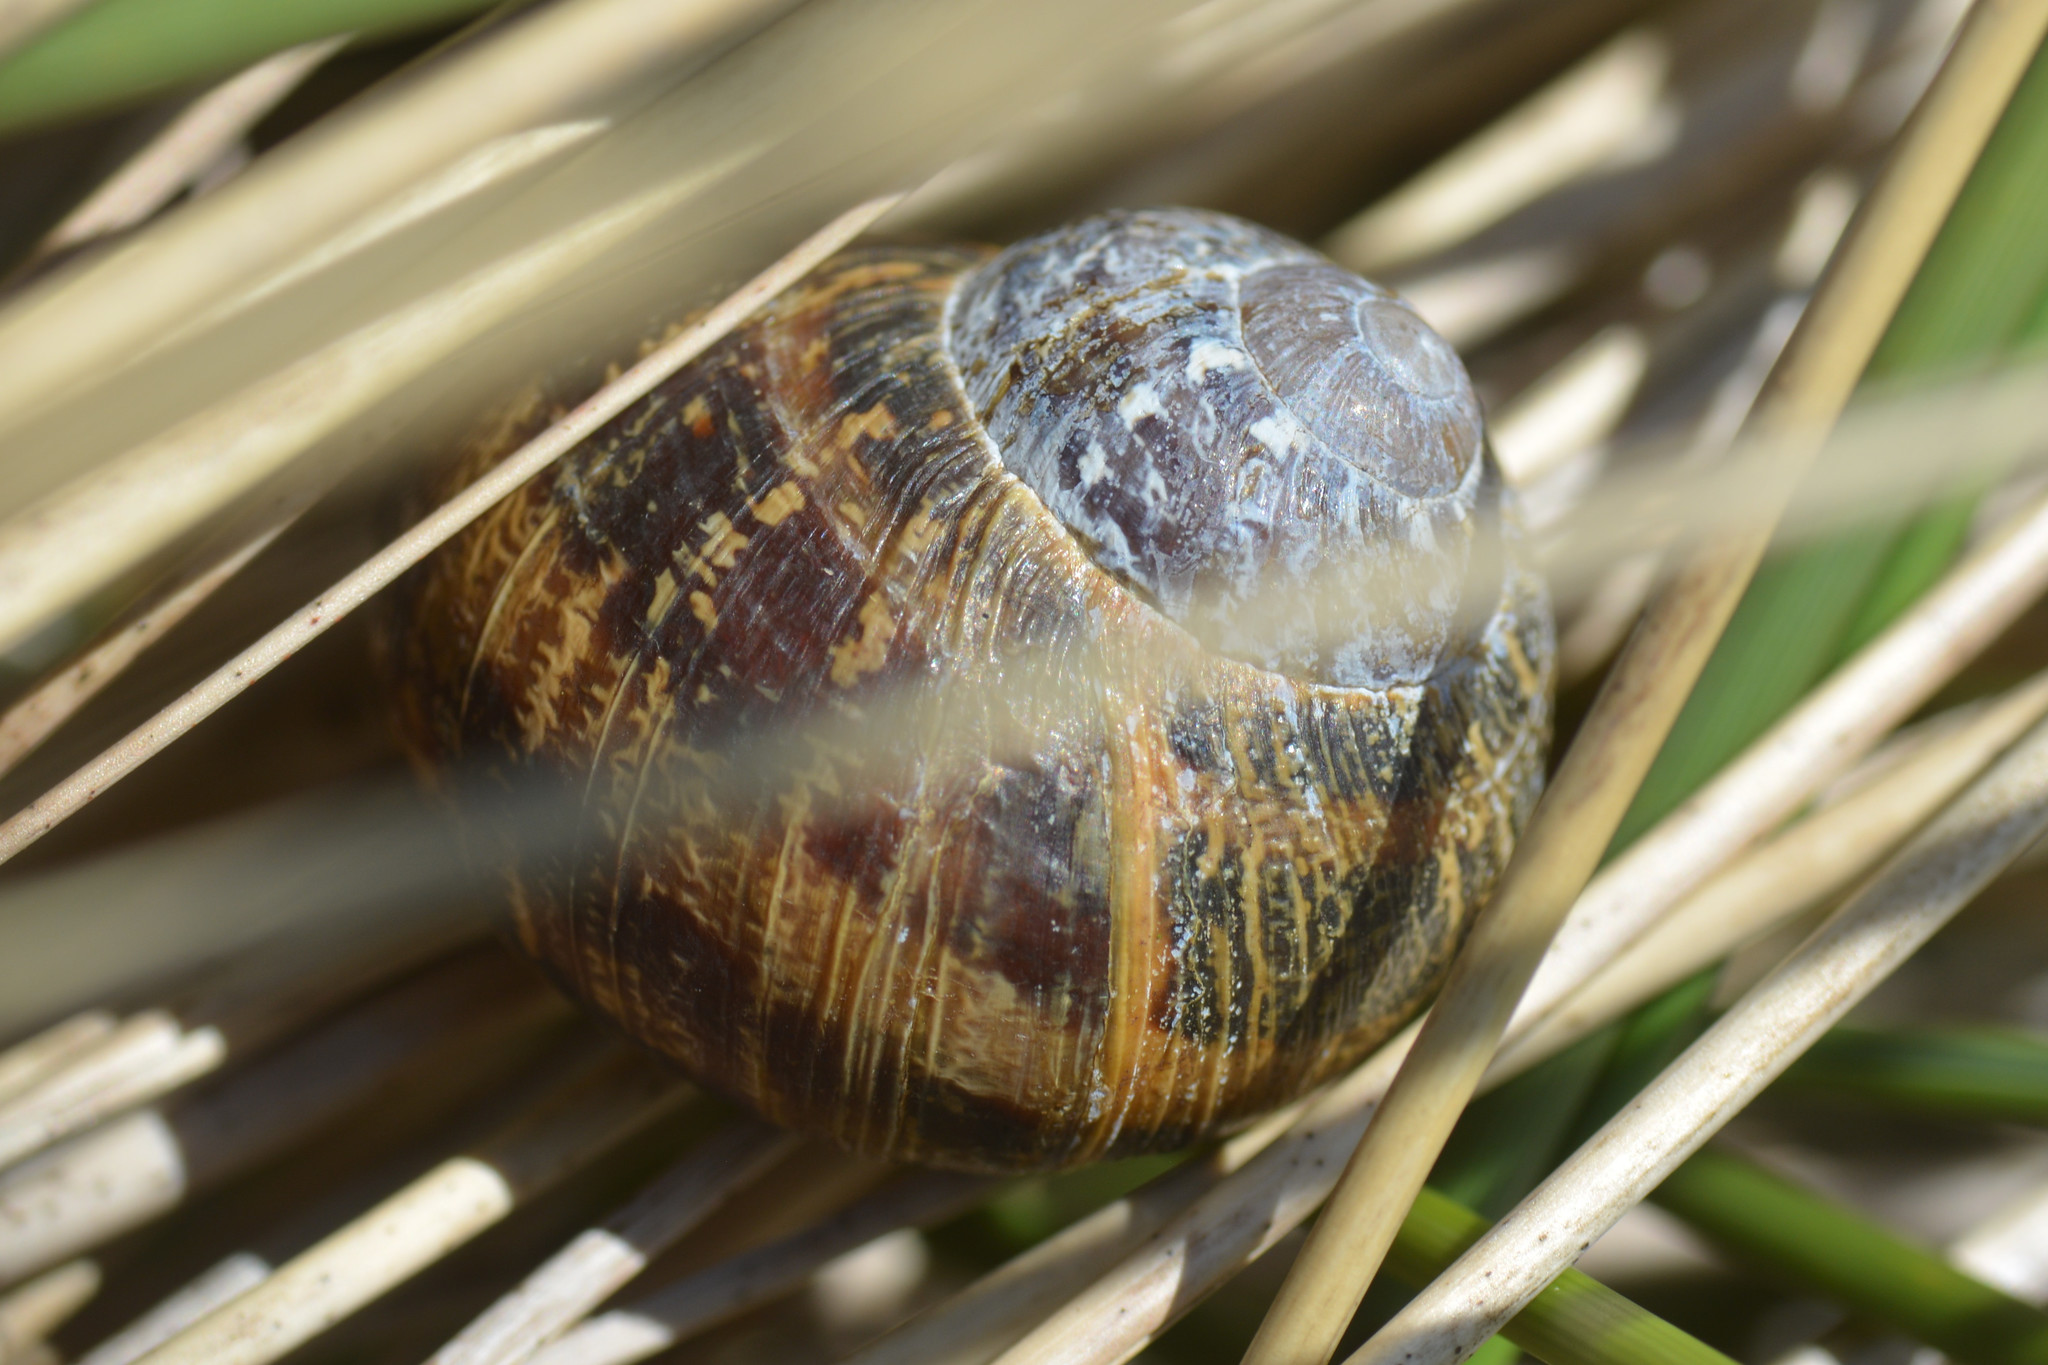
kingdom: Animalia
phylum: Mollusca
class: Gastropoda
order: Stylommatophora
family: Helicidae
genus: Cornu
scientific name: Cornu aspersum
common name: Brown garden snail
